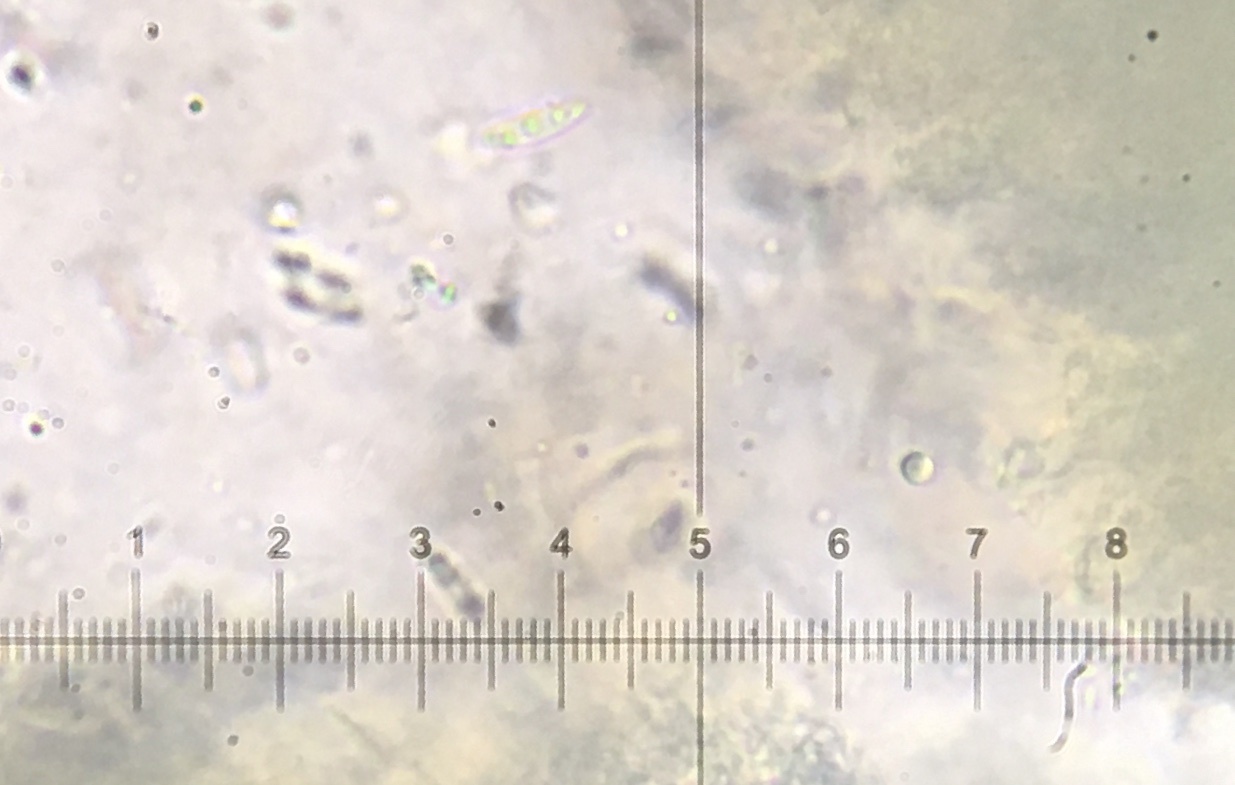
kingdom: Fungi
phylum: Ascomycota
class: Leotiomycetes
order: Helotiales
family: Chlorociboriaceae
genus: Chlorociboria
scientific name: Chlorociboria aeruginascens
